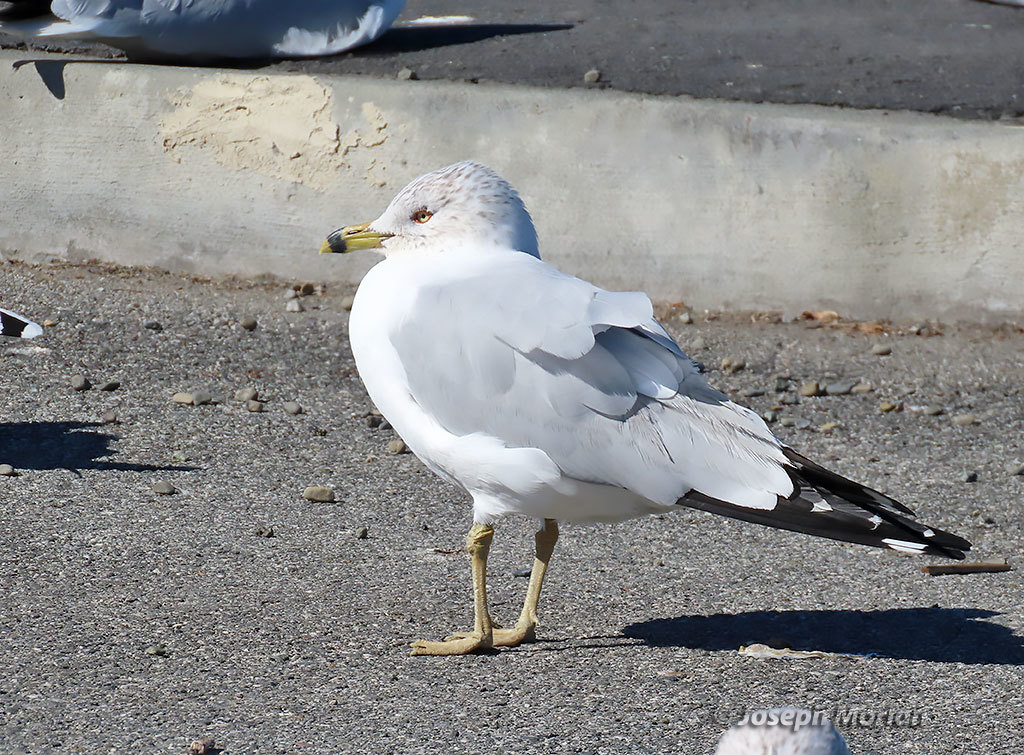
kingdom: Animalia
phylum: Chordata
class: Aves
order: Charadriiformes
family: Laridae
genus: Larus
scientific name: Larus delawarensis
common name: Ring-billed gull
